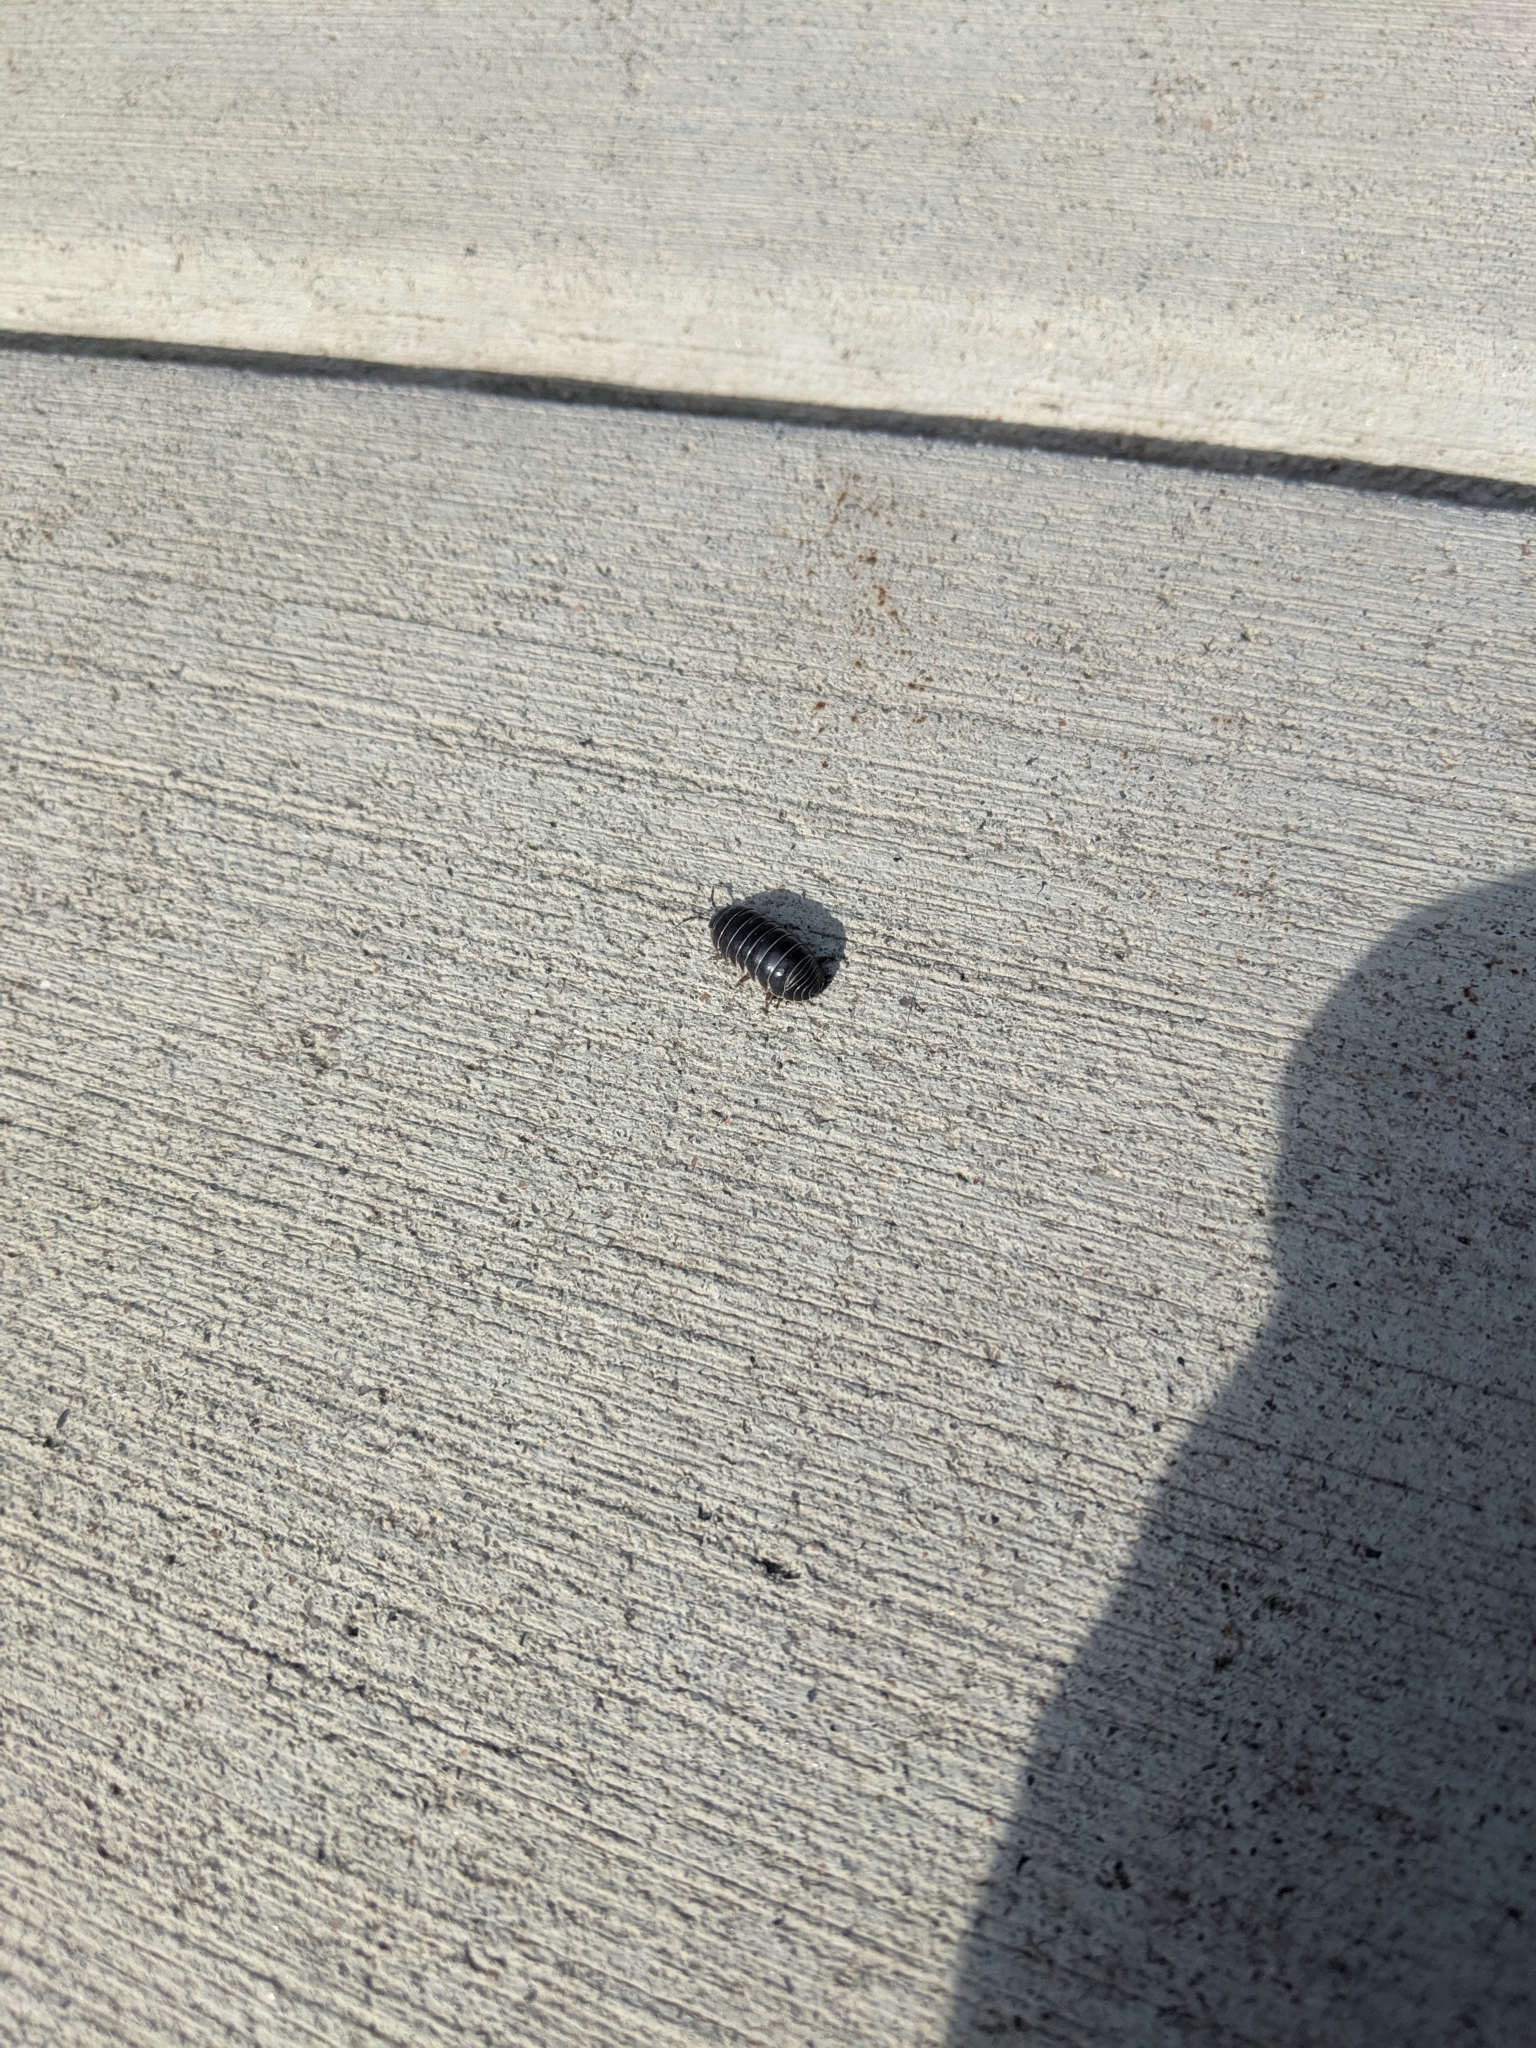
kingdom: Animalia
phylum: Arthropoda
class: Malacostraca
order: Isopoda
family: Armadillidiidae
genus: Armadillidium
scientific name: Armadillidium vulgare
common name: Common pill woodlouse
